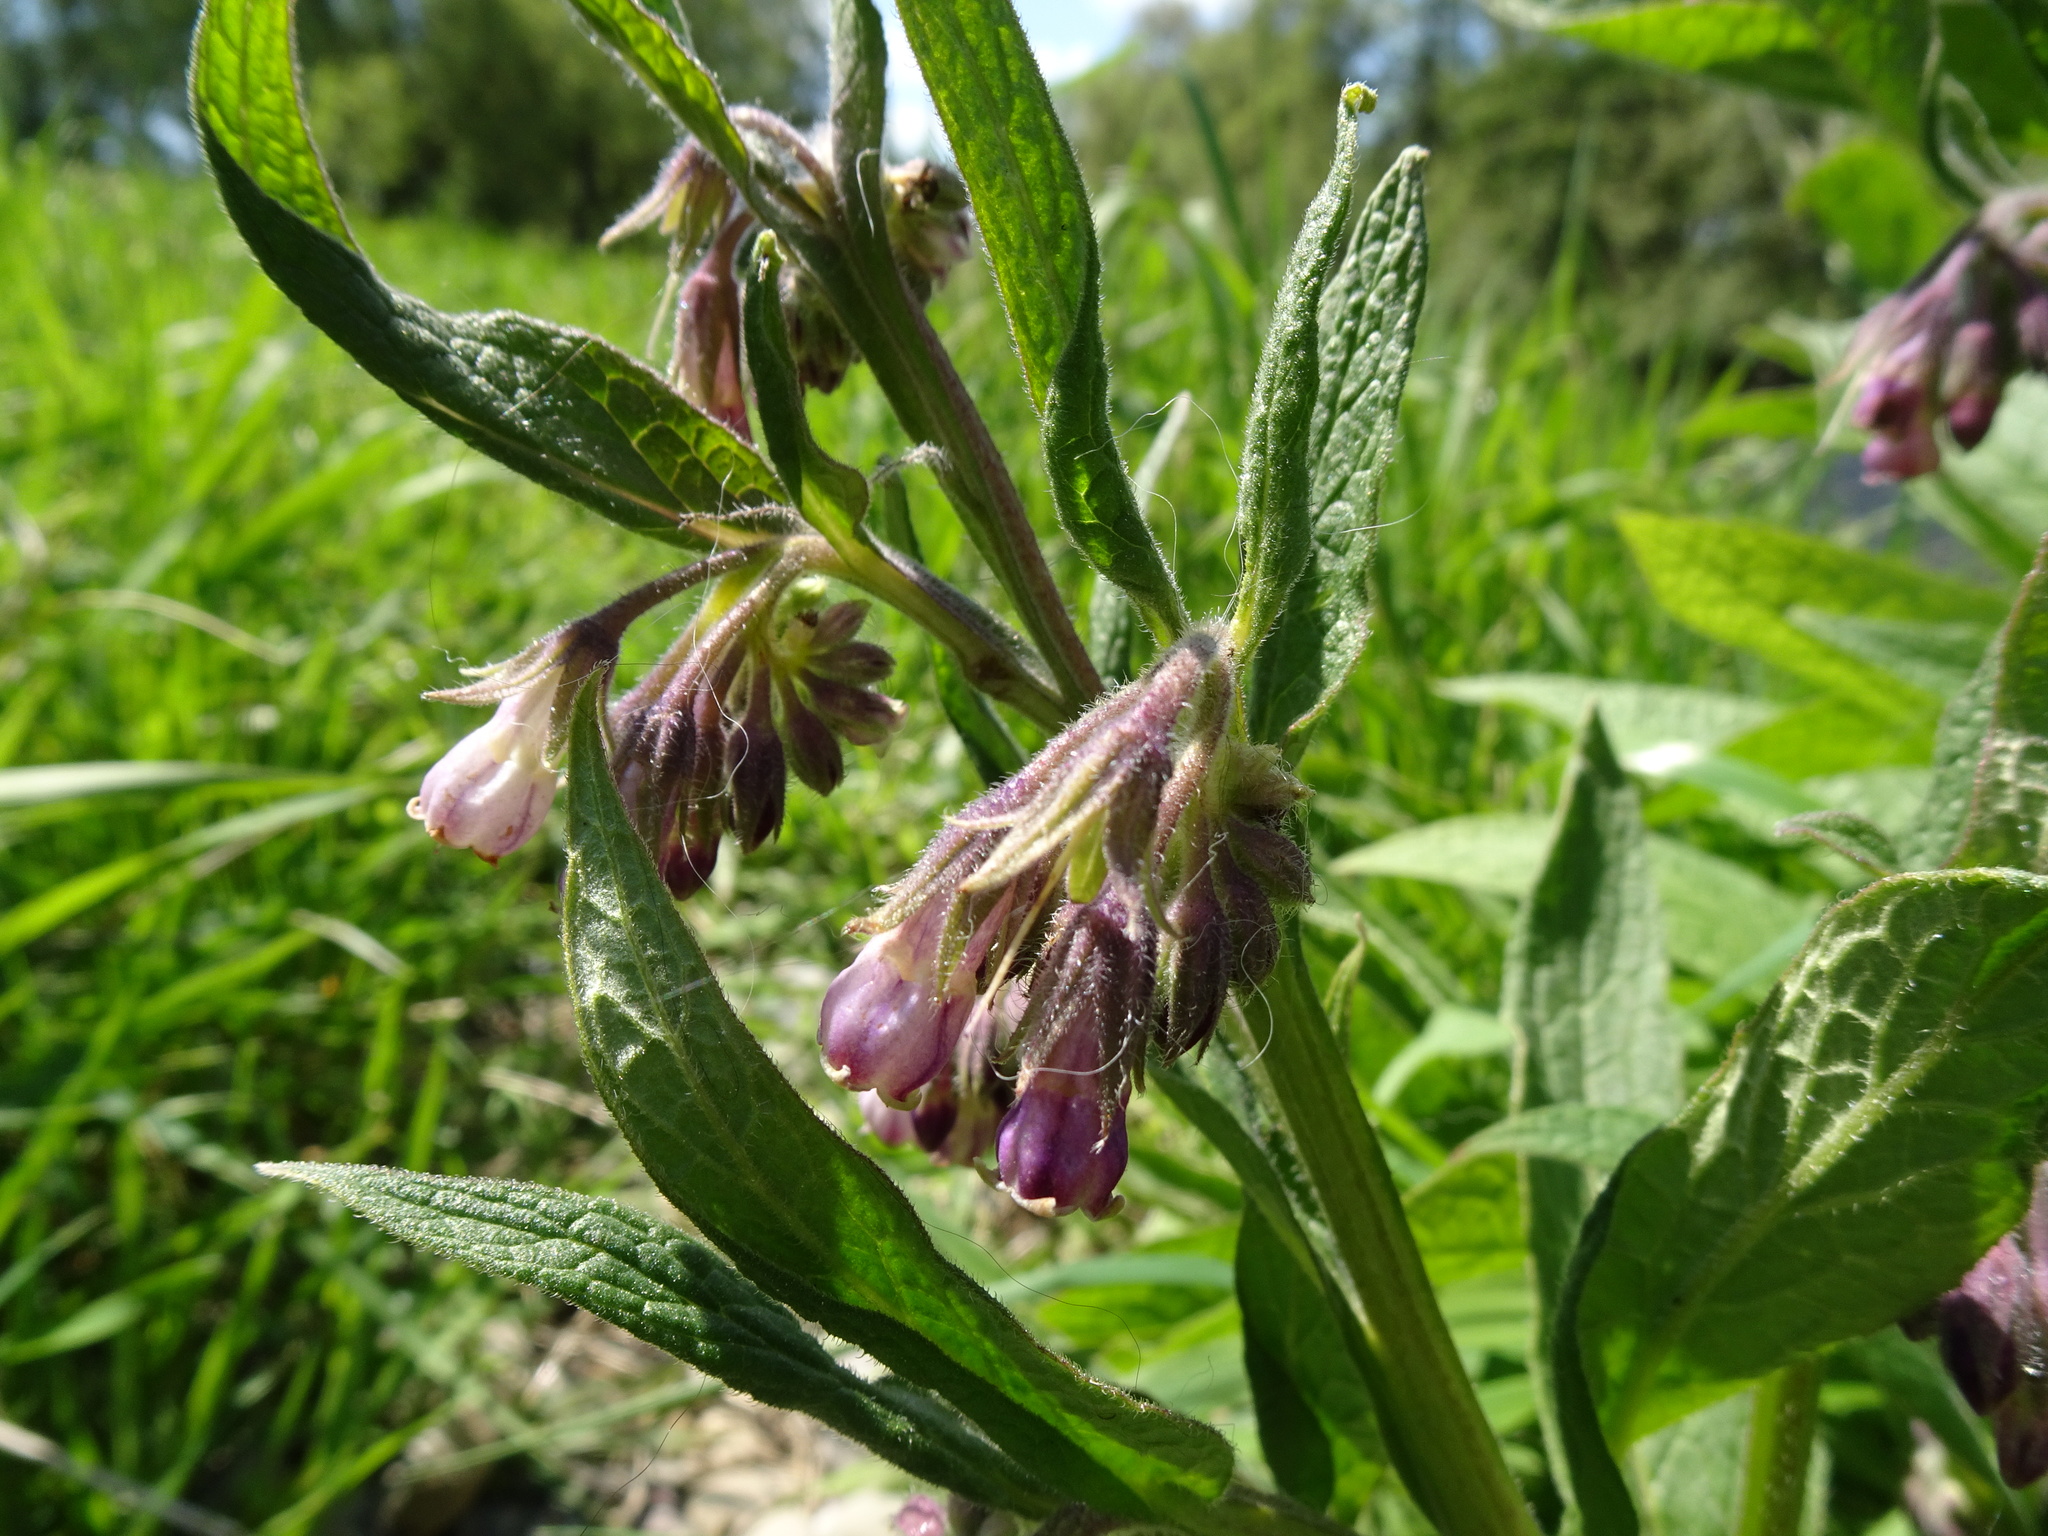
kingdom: Plantae
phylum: Tracheophyta
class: Magnoliopsida
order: Boraginales
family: Boraginaceae
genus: Symphytum
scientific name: Symphytum officinale
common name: Common comfrey
